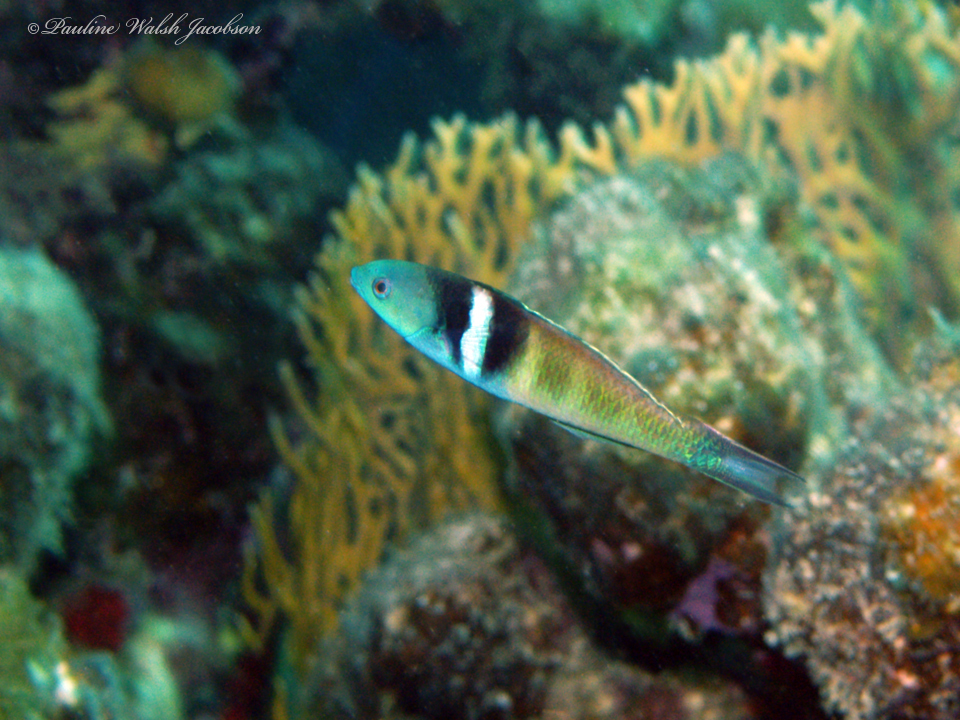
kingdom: Animalia
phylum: Chordata
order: Perciformes
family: Labridae
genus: Thalassoma
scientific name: Thalassoma bifasciatum
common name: Bluehead wrasse
